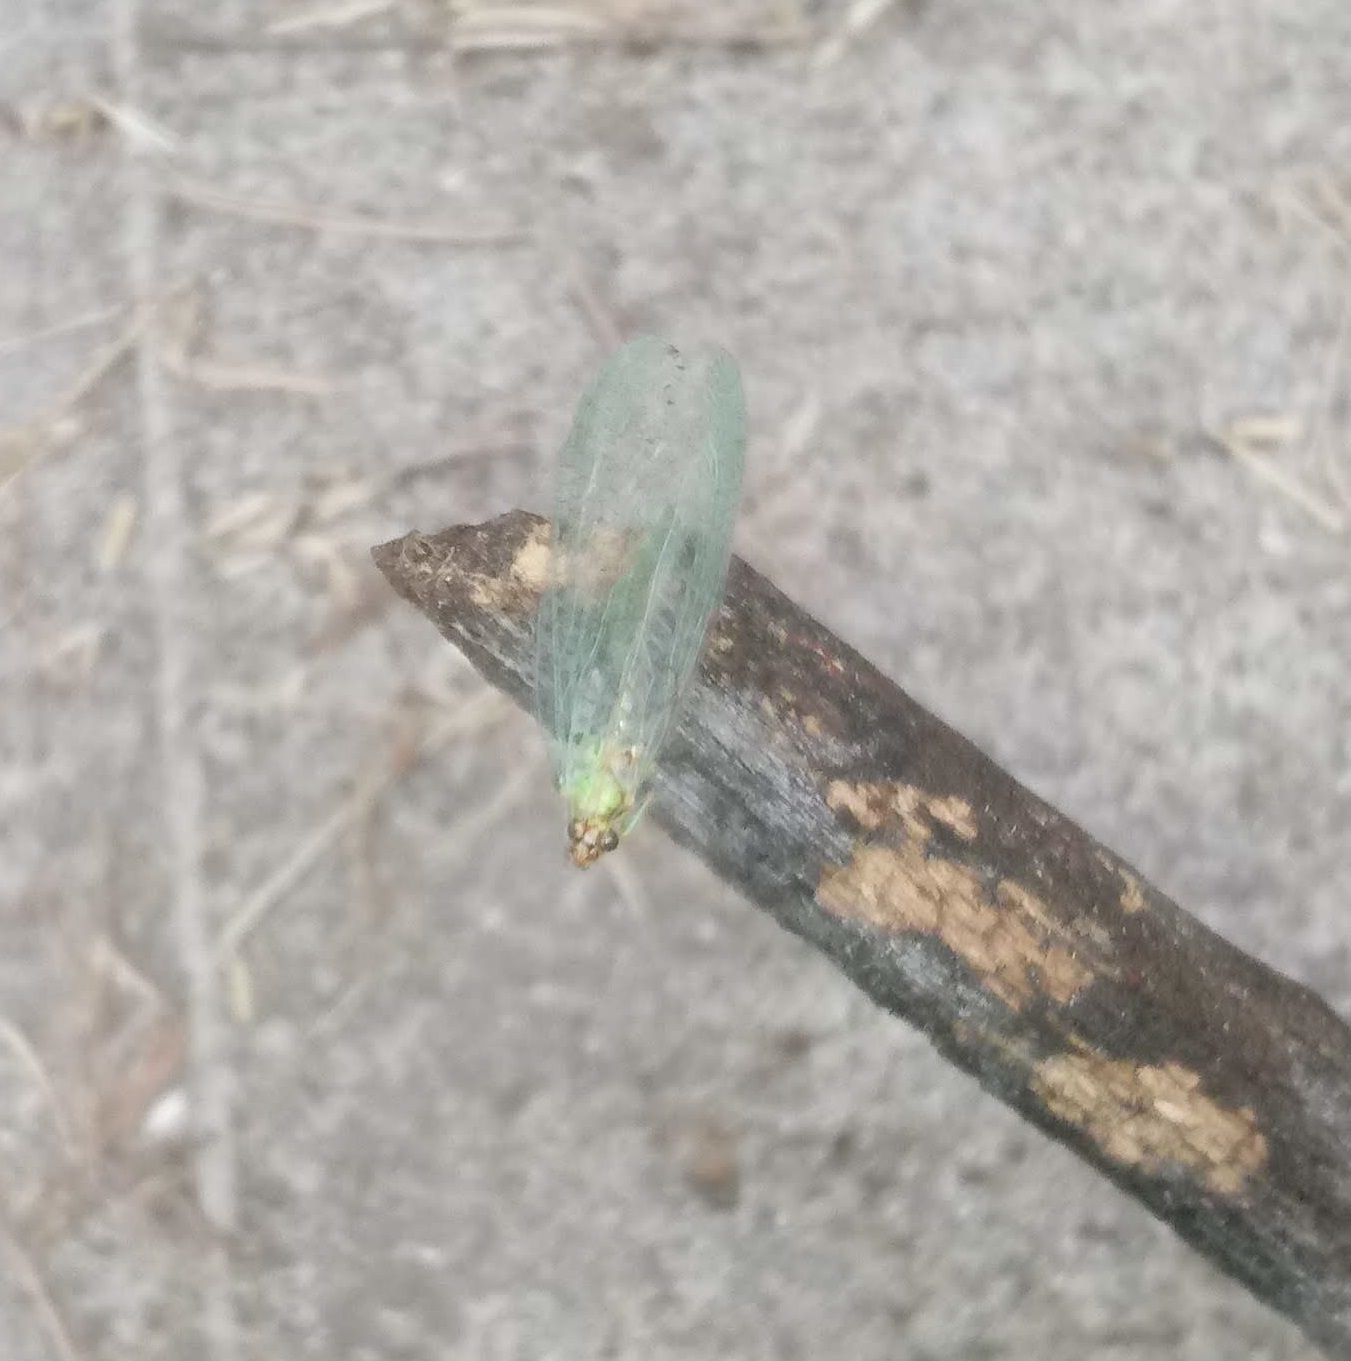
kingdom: Animalia
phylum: Arthropoda
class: Insecta
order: Neuroptera
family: Chrysopidae
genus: Chrysopa
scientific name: Chrysopa oculata
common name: Golden-eyed lacewing
